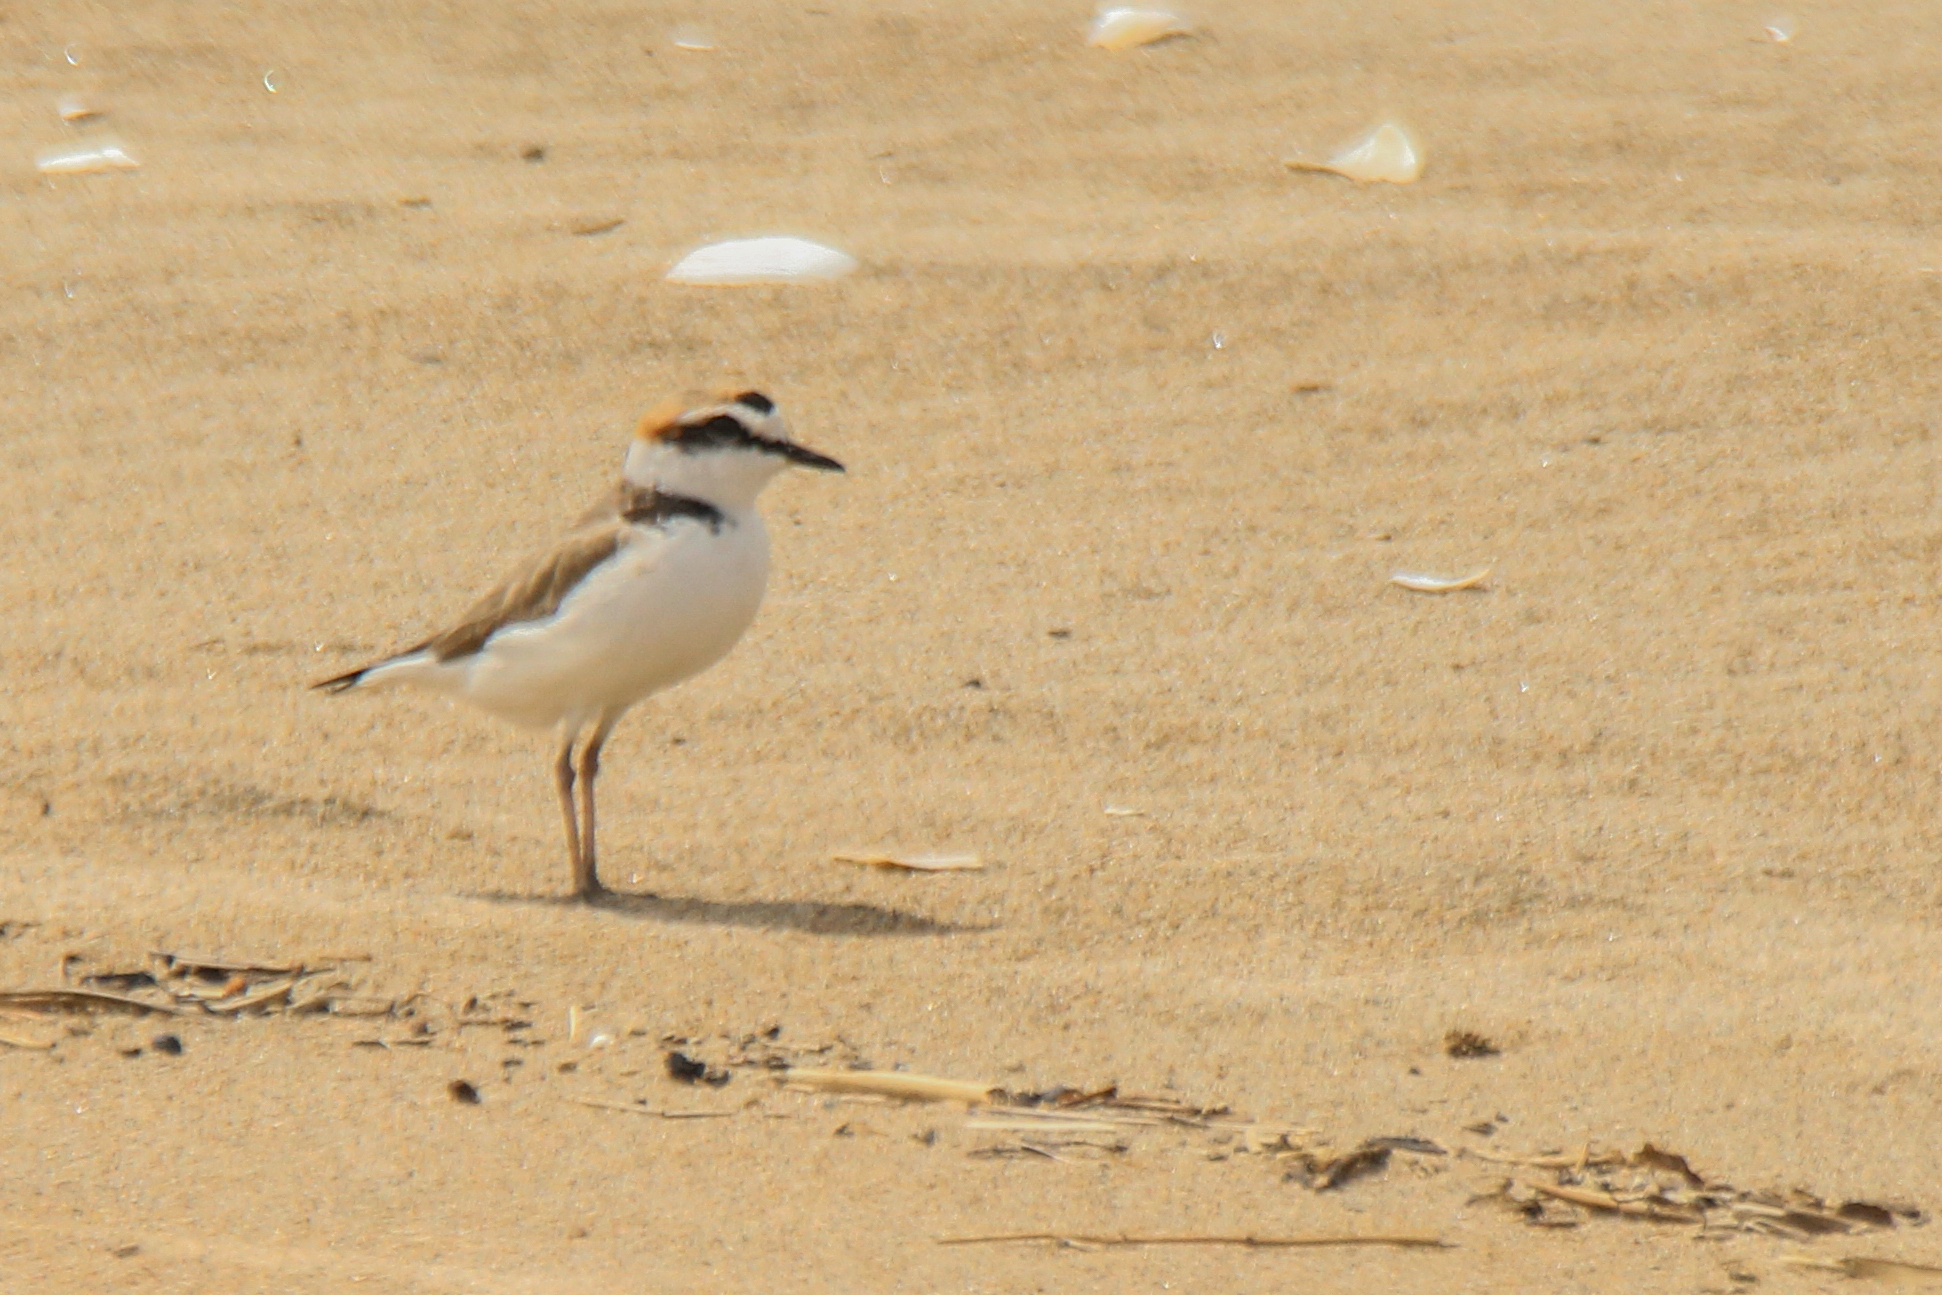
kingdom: Animalia
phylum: Chordata
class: Aves
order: Charadriiformes
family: Charadriidae
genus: Charadrius
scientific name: Charadrius alexandrinus
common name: Kentish plover
